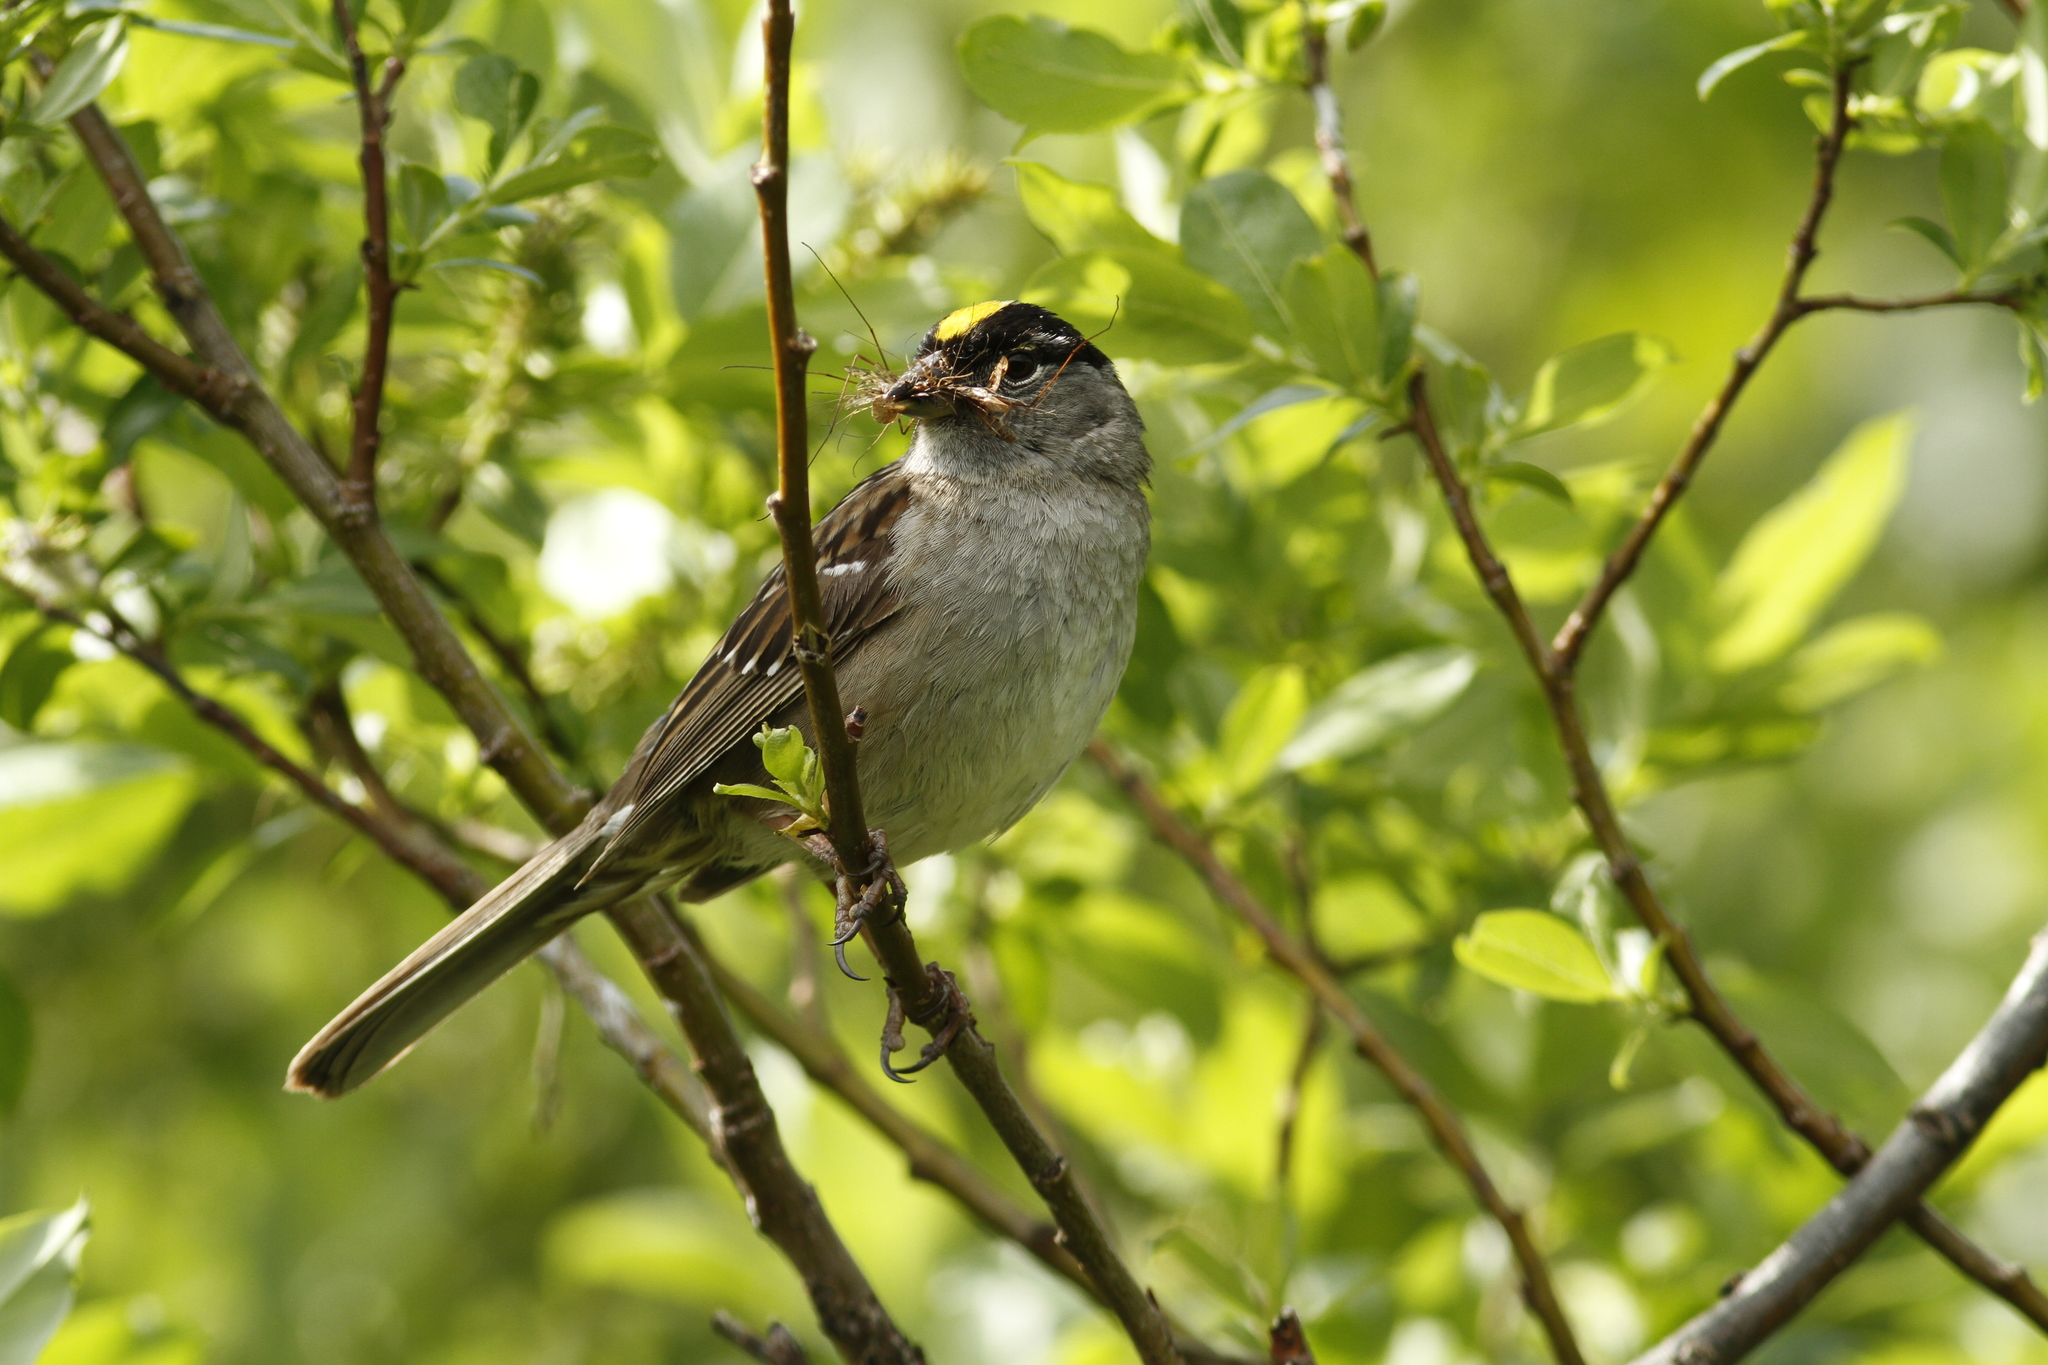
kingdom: Animalia
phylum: Chordata
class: Aves
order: Passeriformes
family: Passerellidae
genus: Zonotrichia
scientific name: Zonotrichia atricapilla
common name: Golden-crowned sparrow
